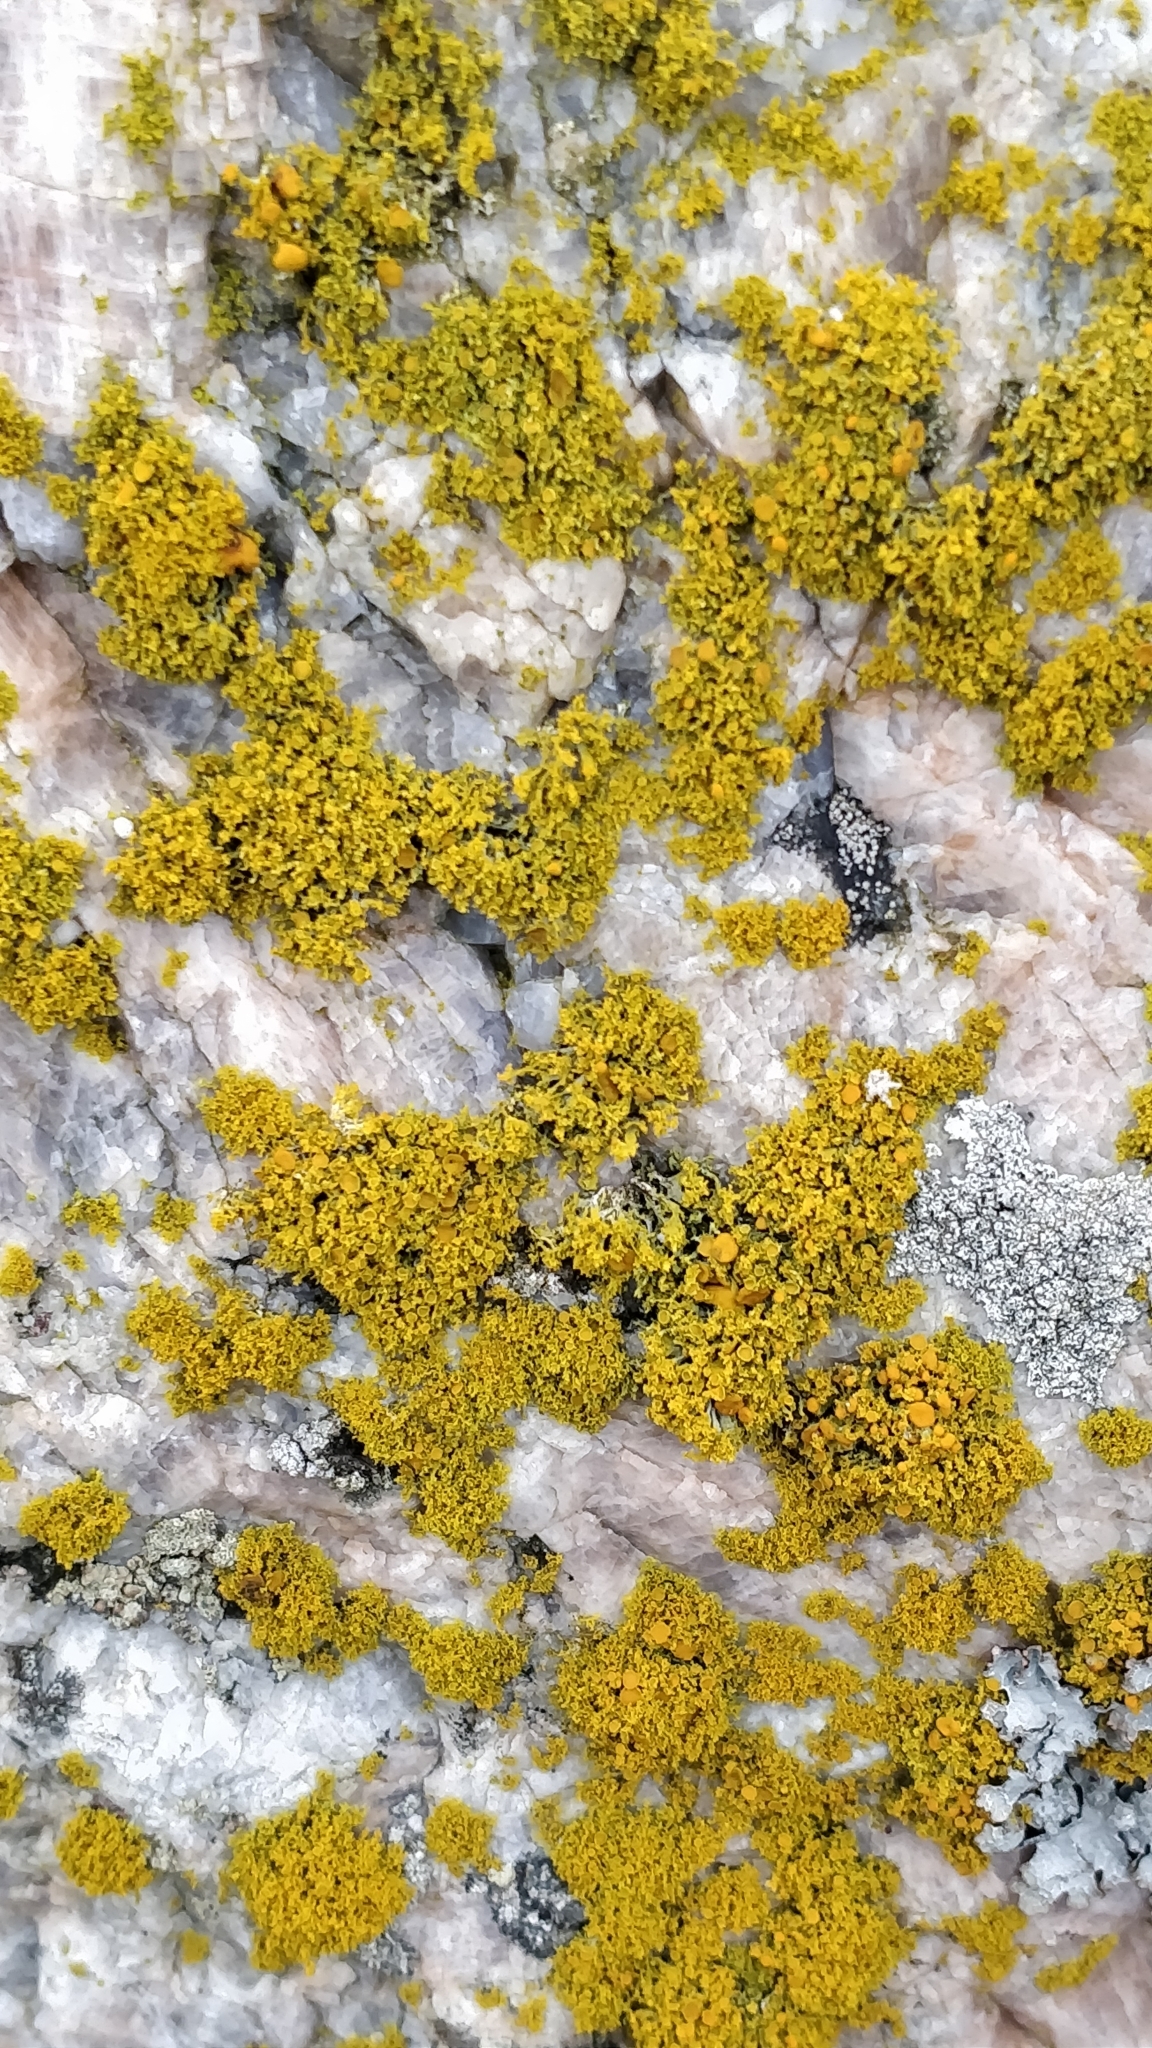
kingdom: Fungi
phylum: Ascomycota
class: Lecanoromycetes
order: Teloschistales
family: Teloschistaceae
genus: Polycauliona
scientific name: Polycauliona candelaria
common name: Shrubby sunburst lichen
